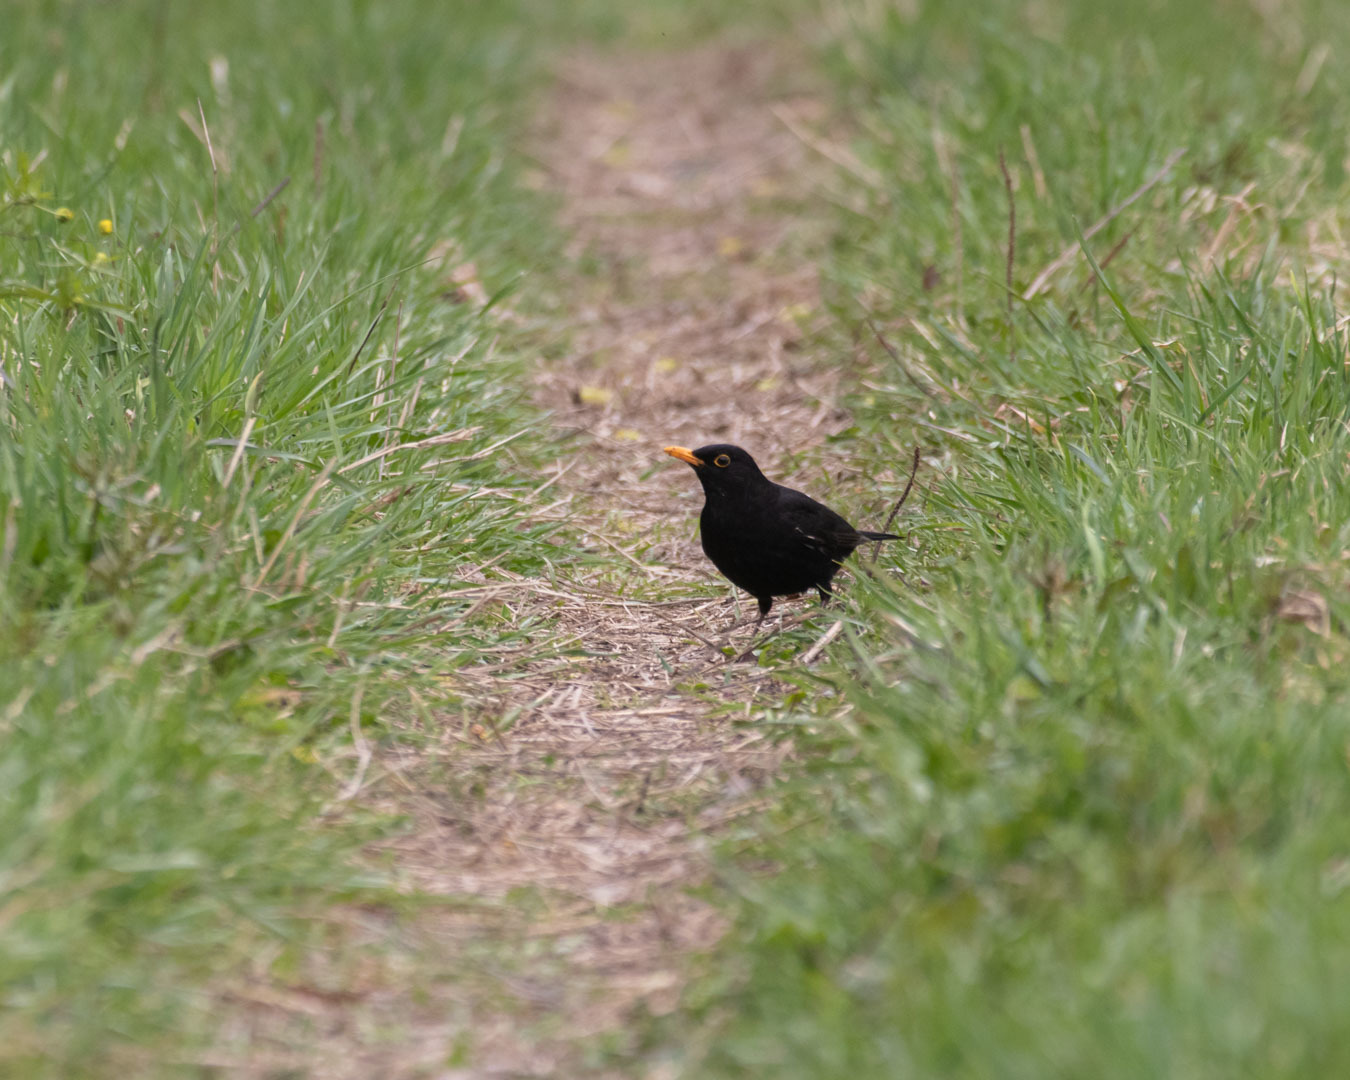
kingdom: Animalia
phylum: Chordata
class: Aves
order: Passeriformes
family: Turdidae
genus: Turdus
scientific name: Turdus merula
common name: Common blackbird
